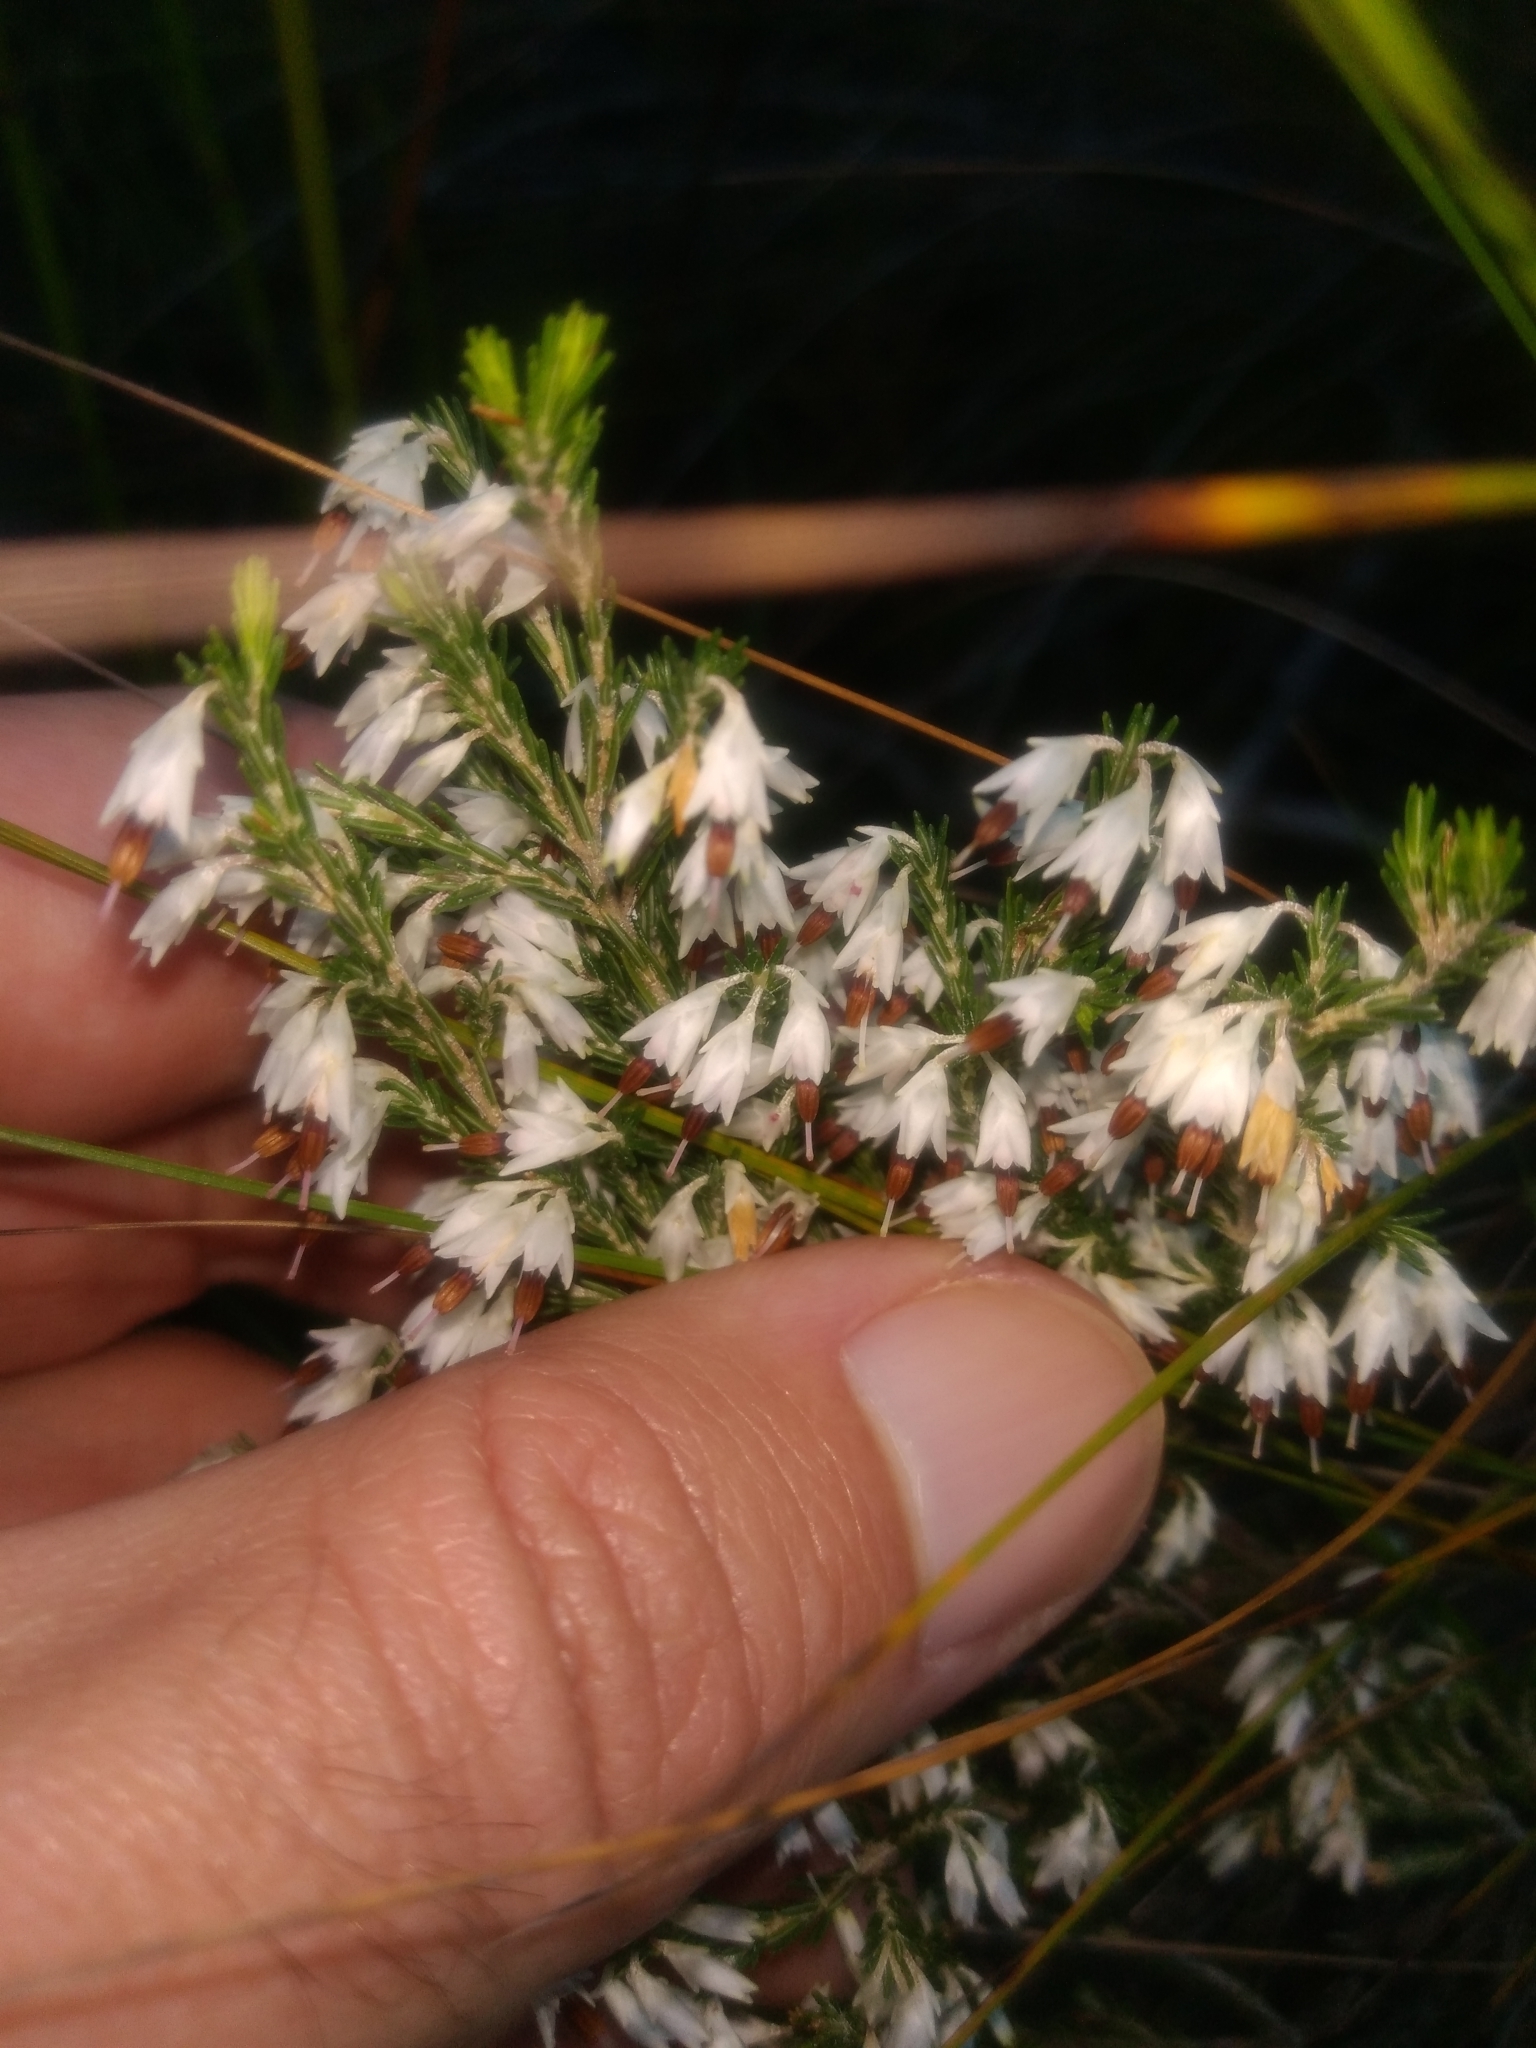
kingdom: Plantae
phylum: Tracheophyta
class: Magnoliopsida
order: Ericales
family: Ericaceae
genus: Erica
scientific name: Erica imbricata
